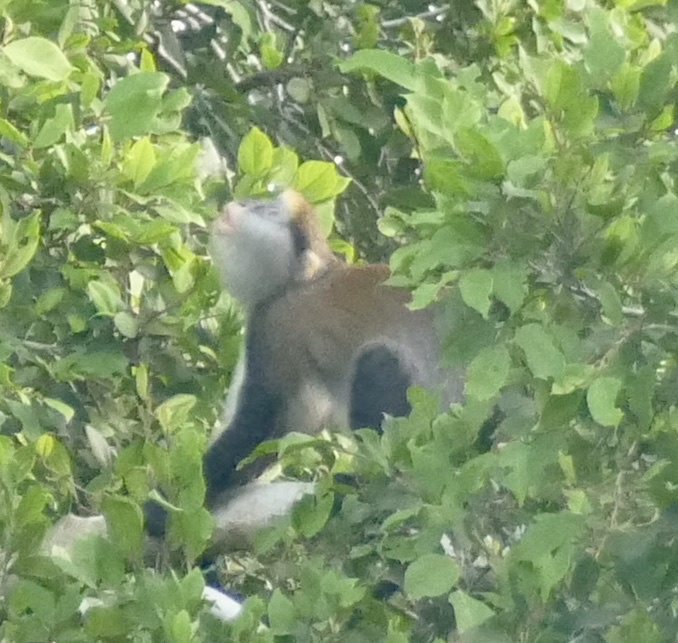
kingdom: Animalia
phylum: Chordata
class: Mammalia
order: Primates
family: Cercopithecidae
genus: Cercopithecus
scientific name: Cercopithecus lowei
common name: Lowe's monkey
